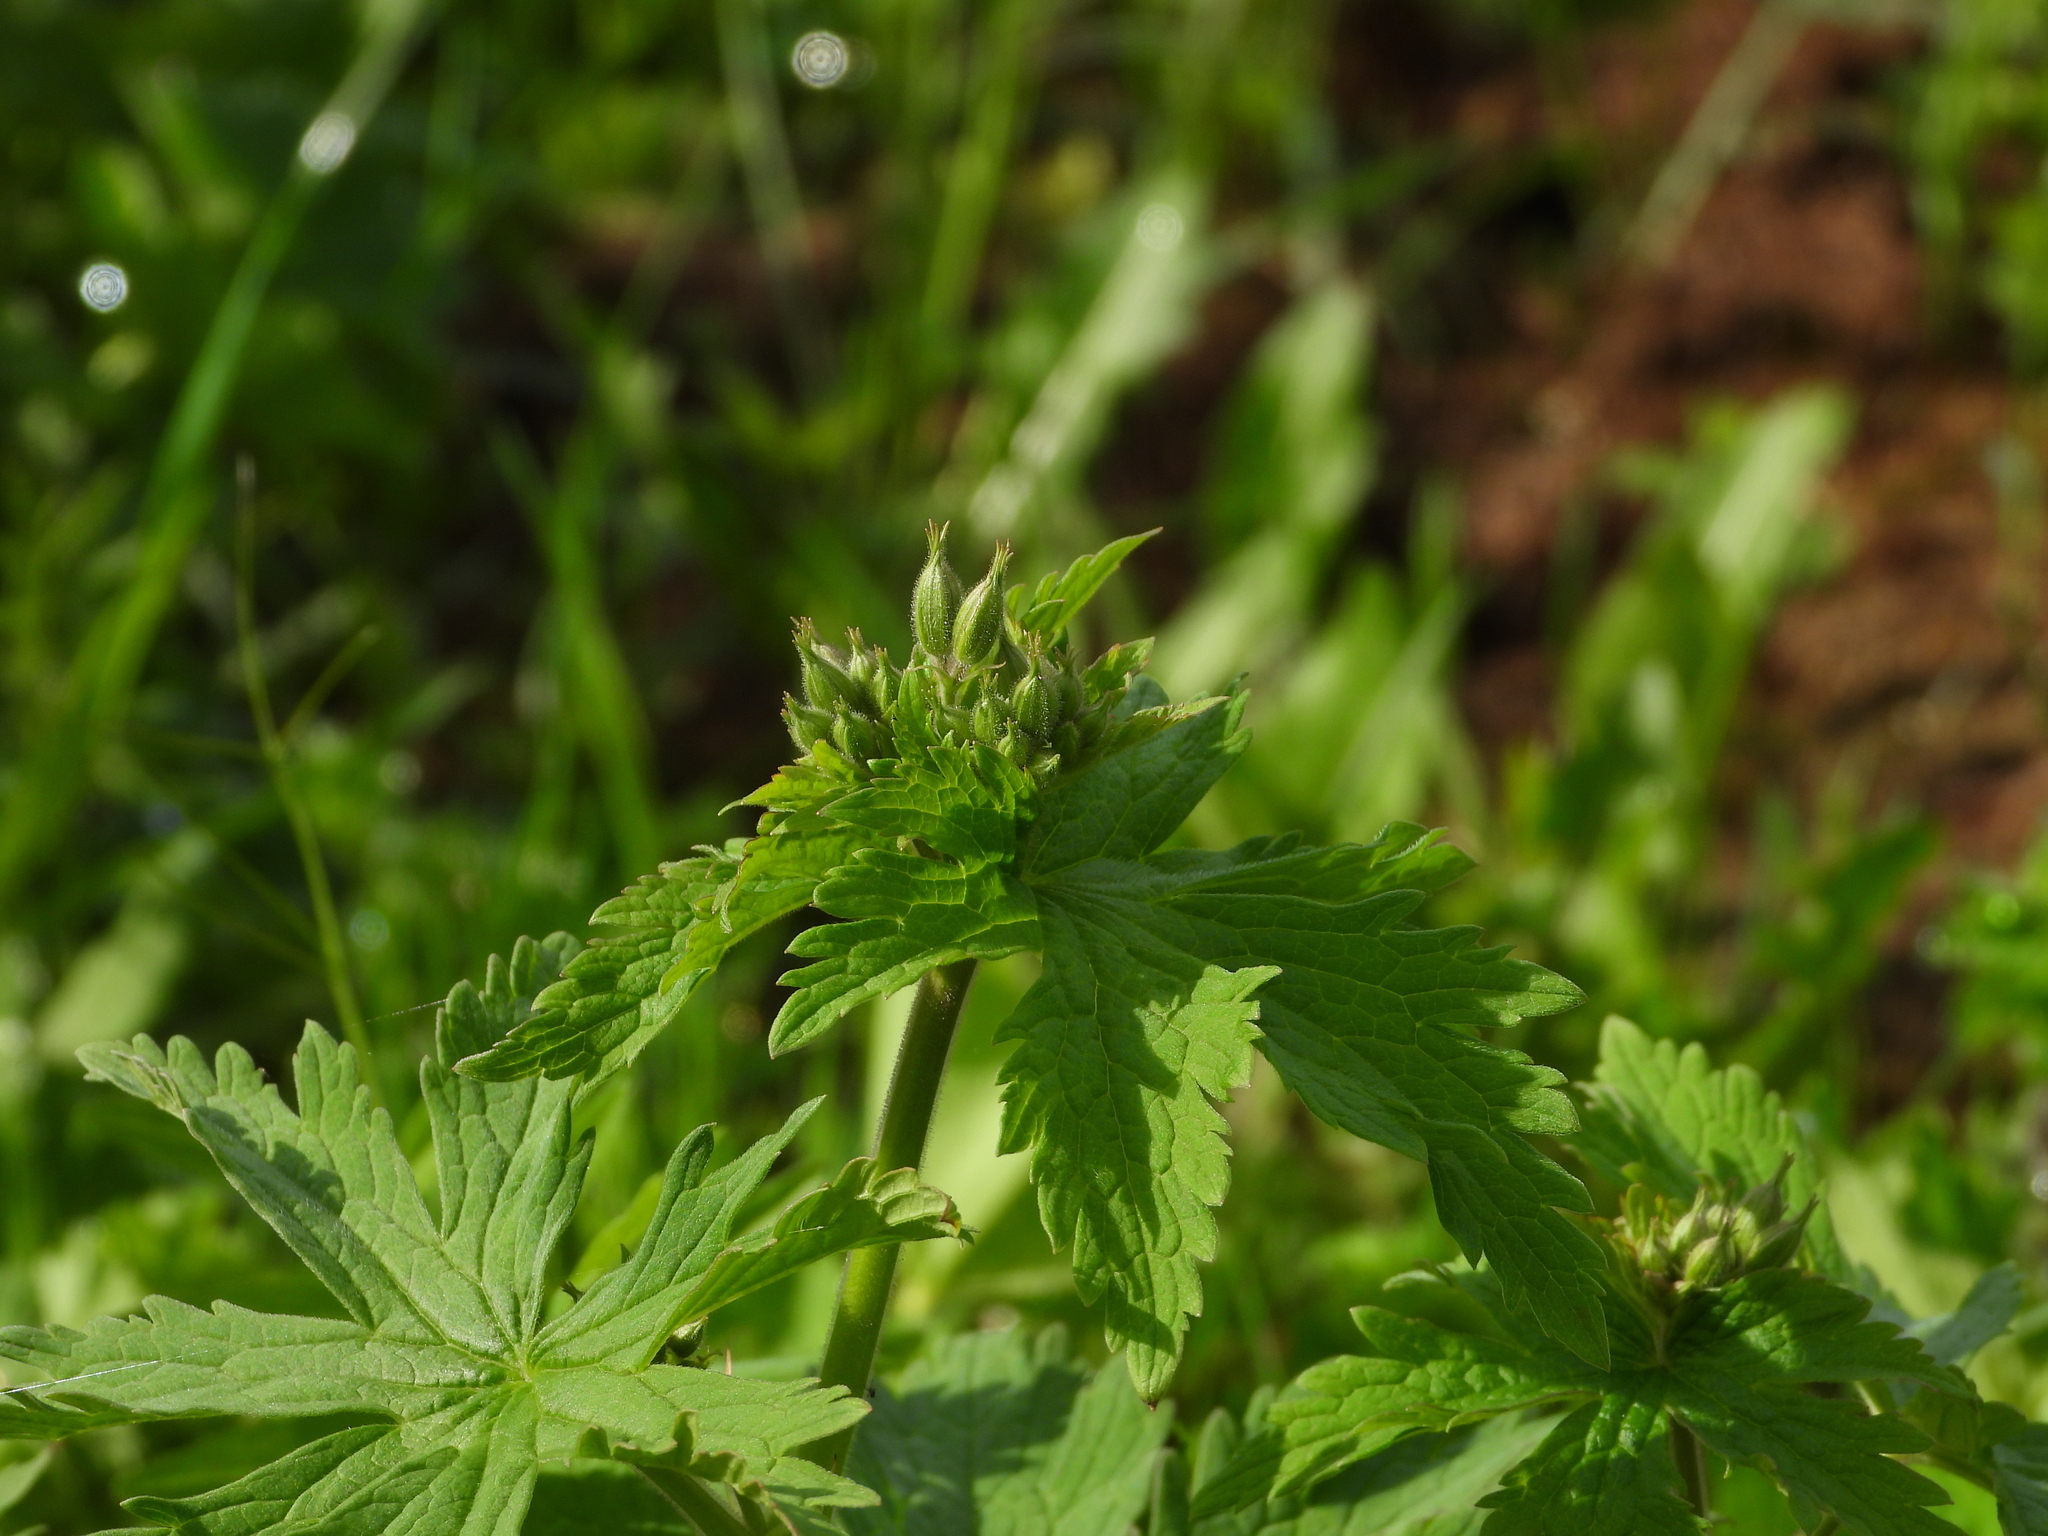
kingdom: Plantae
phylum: Tracheophyta
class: Magnoliopsida
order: Geraniales
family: Geraniaceae
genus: Geranium
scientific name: Geranium sylvaticum
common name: Wood crane's-bill
